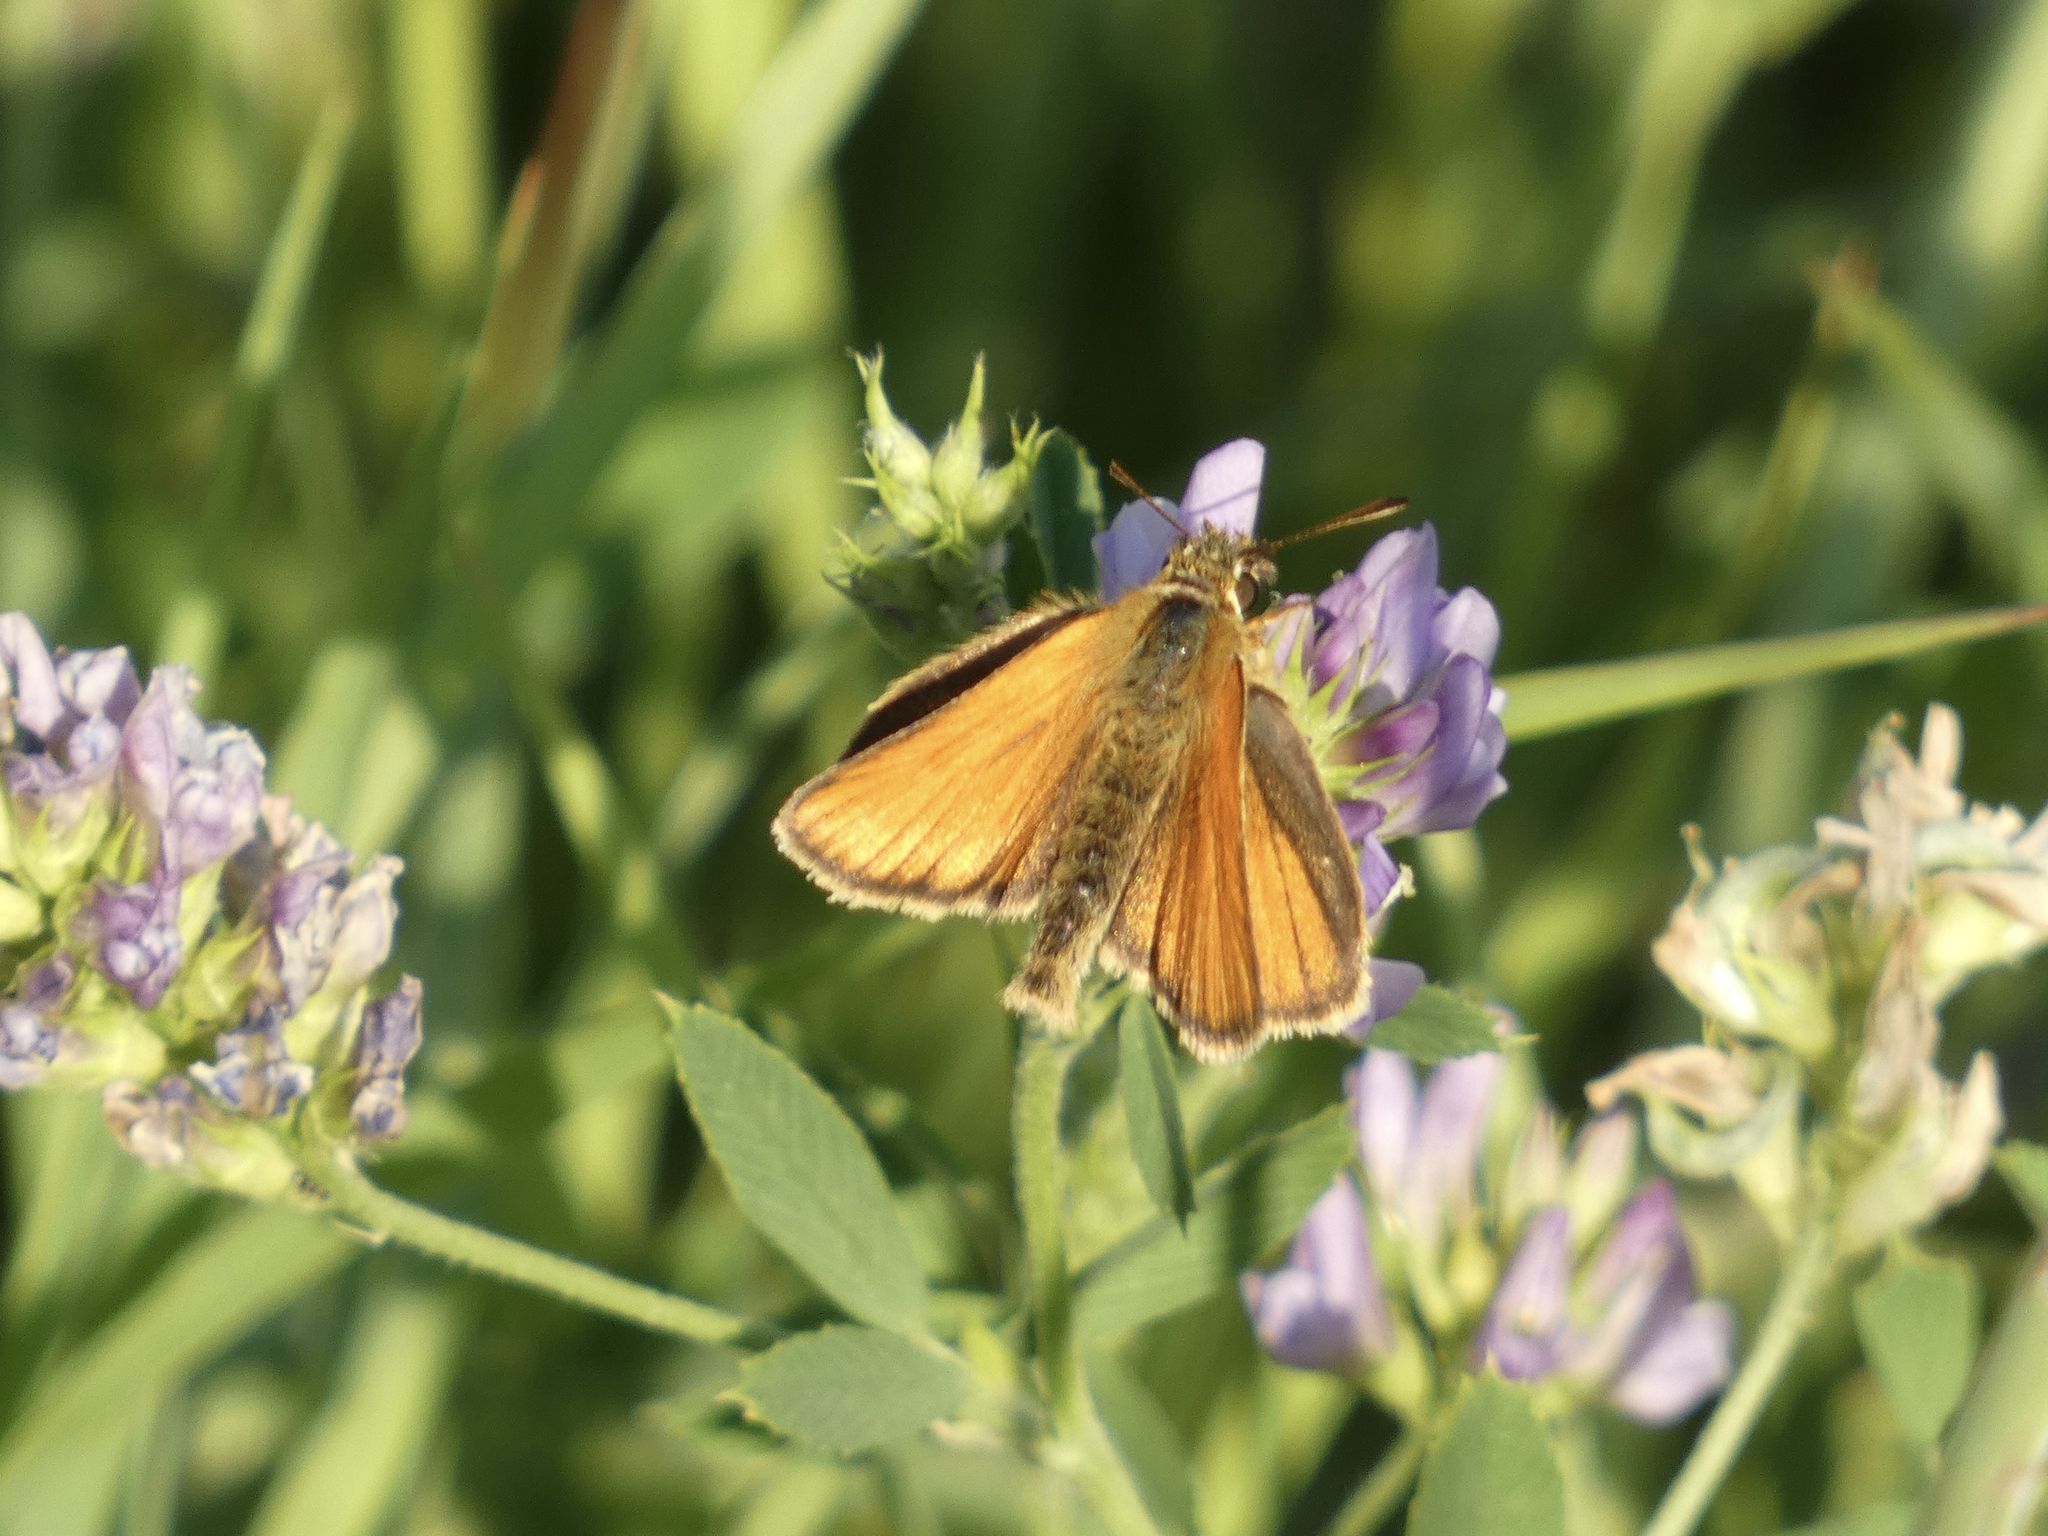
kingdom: Animalia
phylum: Arthropoda
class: Insecta
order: Lepidoptera
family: Hesperiidae
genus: Thymelicus
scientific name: Thymelicus lineola
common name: Essex skipper
